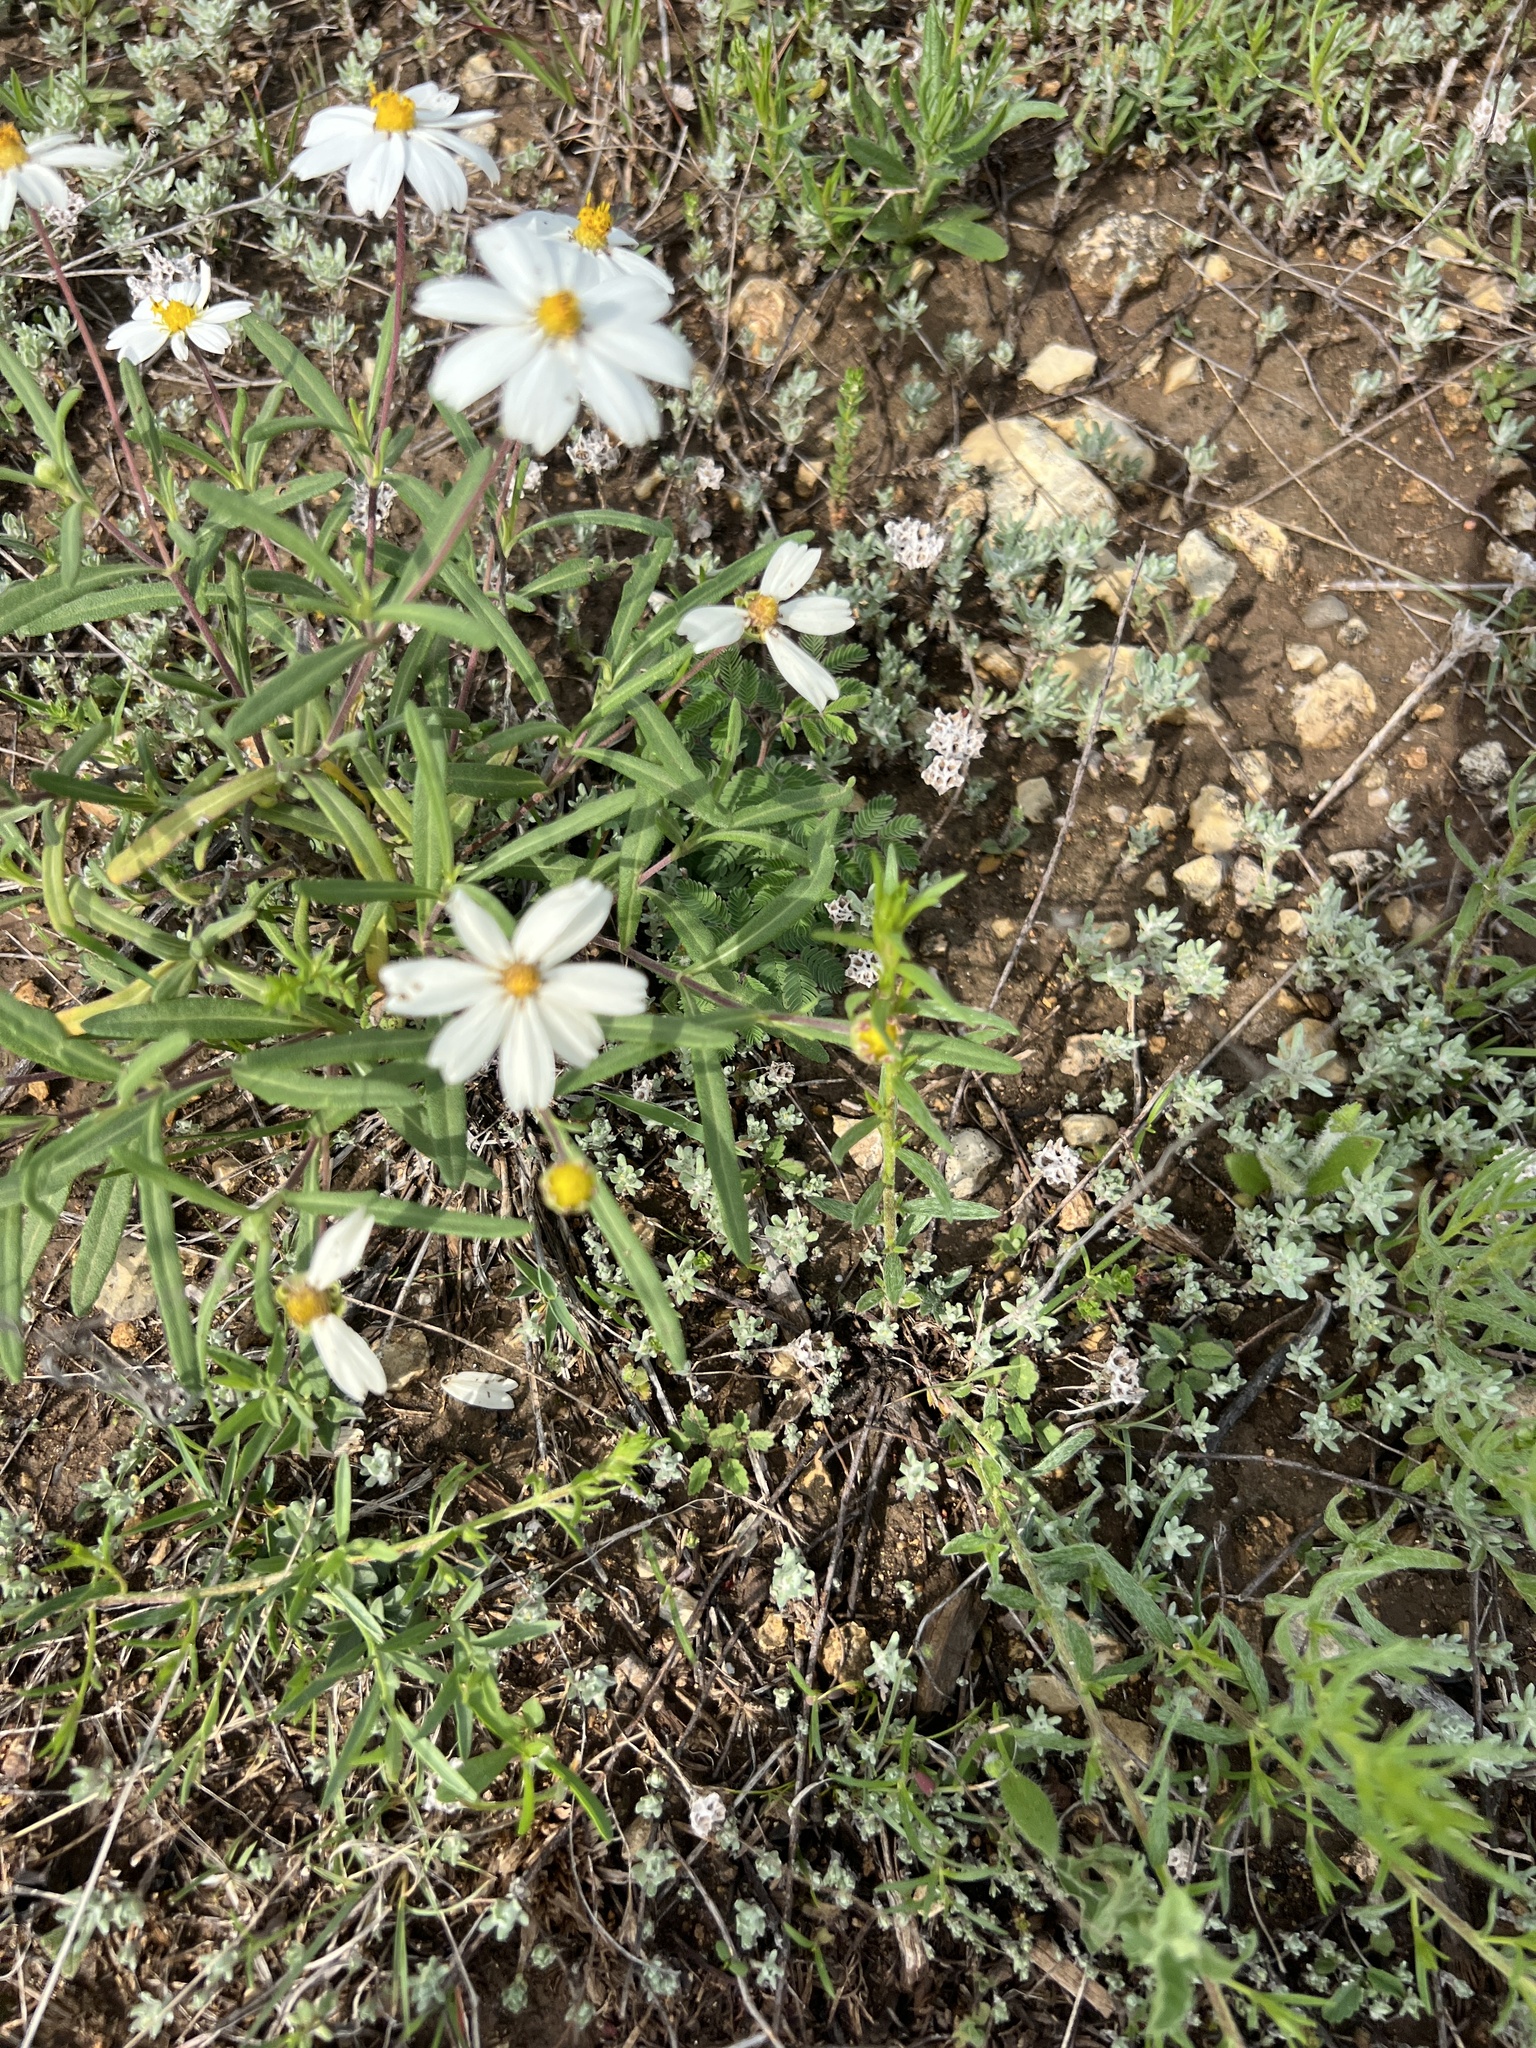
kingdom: Plantae
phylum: Tracheophyta
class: Magnoliopsida
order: Asterales
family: Asteraceae
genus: Melampodium
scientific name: Melampodium leucanthum
